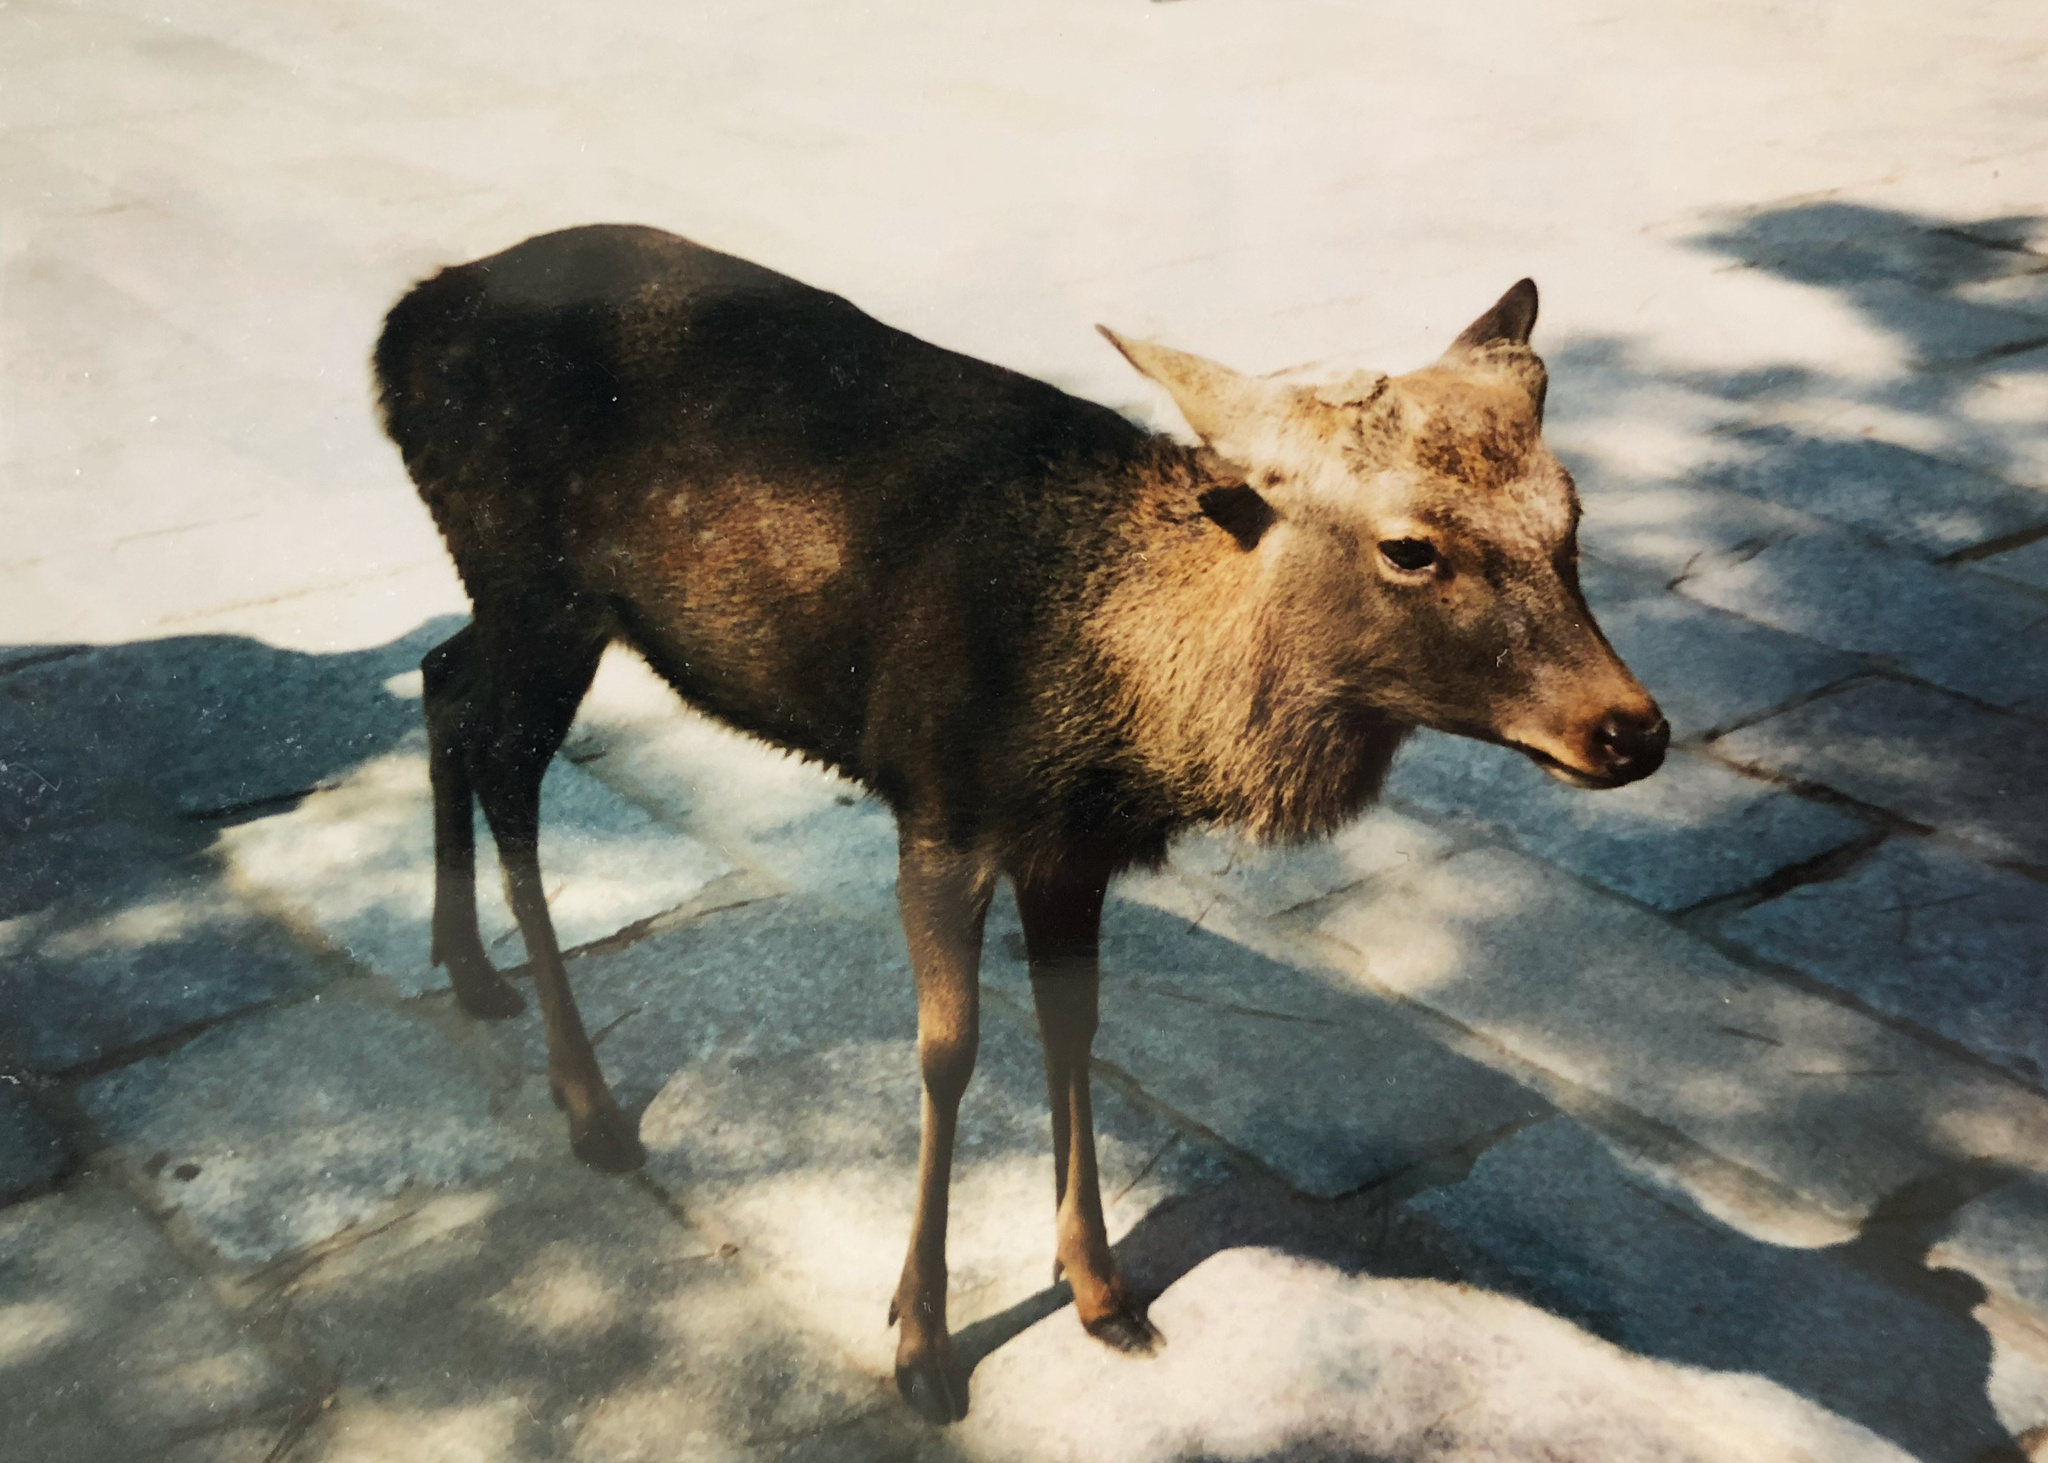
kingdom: Animalia
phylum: Chordata
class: Mammalia
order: Artiodactyla
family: Cervidae
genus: Cervus
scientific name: Cervus nippon
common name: Sika deer
